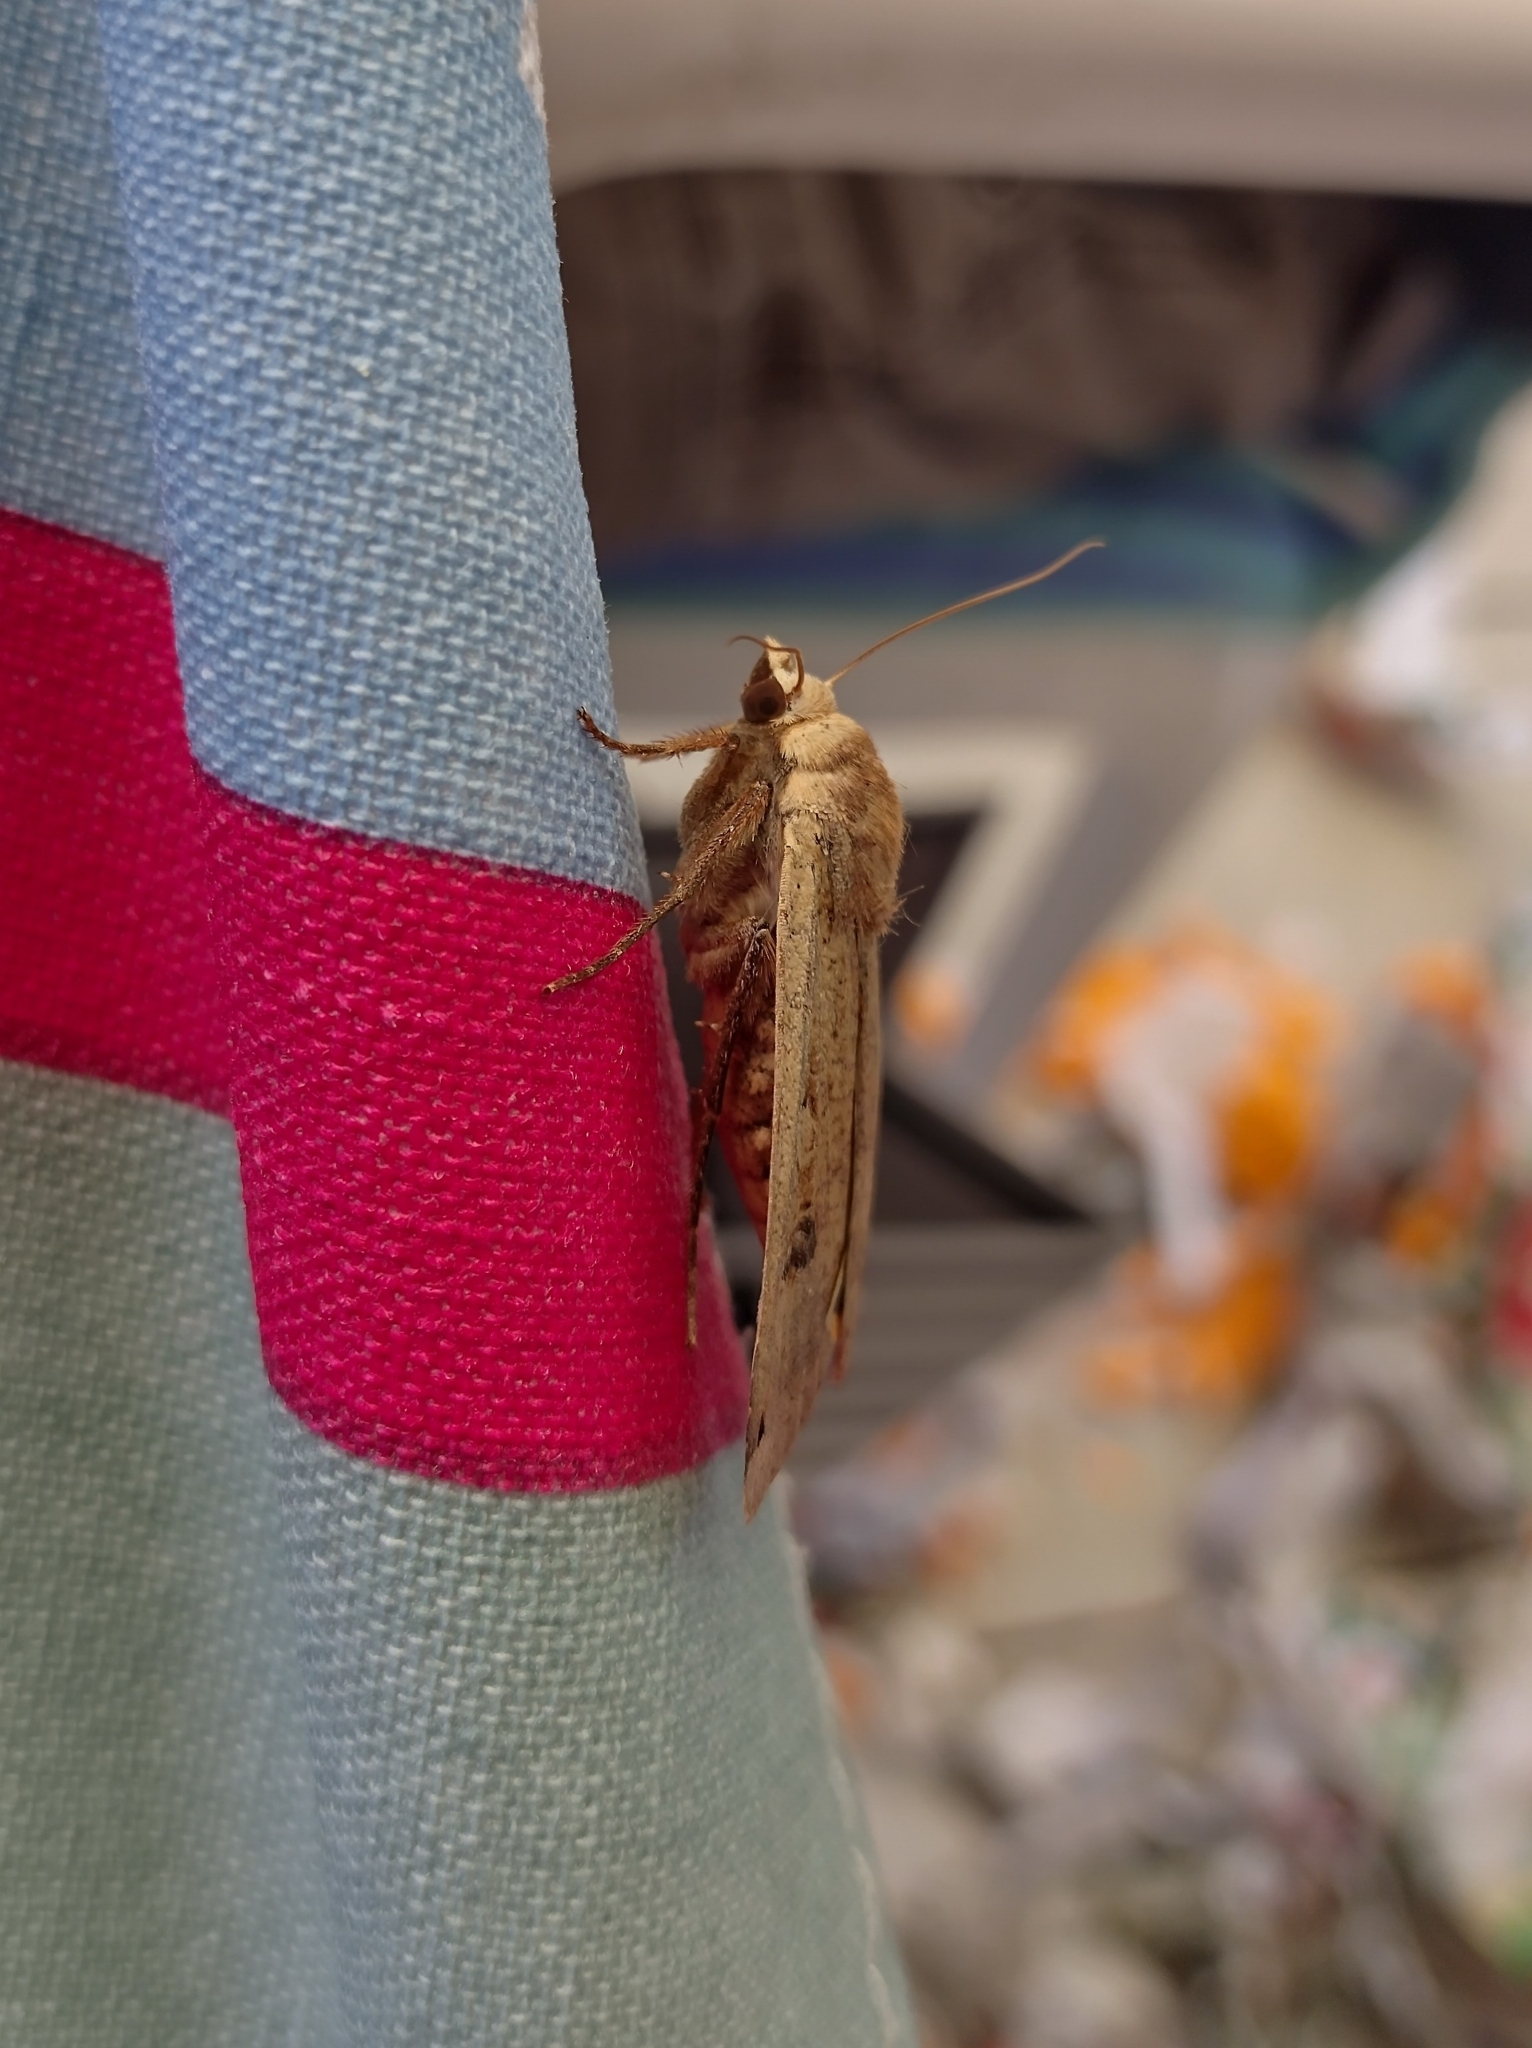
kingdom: Animalia
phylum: Arthropoda
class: Insecta
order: Lepidoptera
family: Noctuidae
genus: Noctua
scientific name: Noctua pronuba
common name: Large yellow underwing
